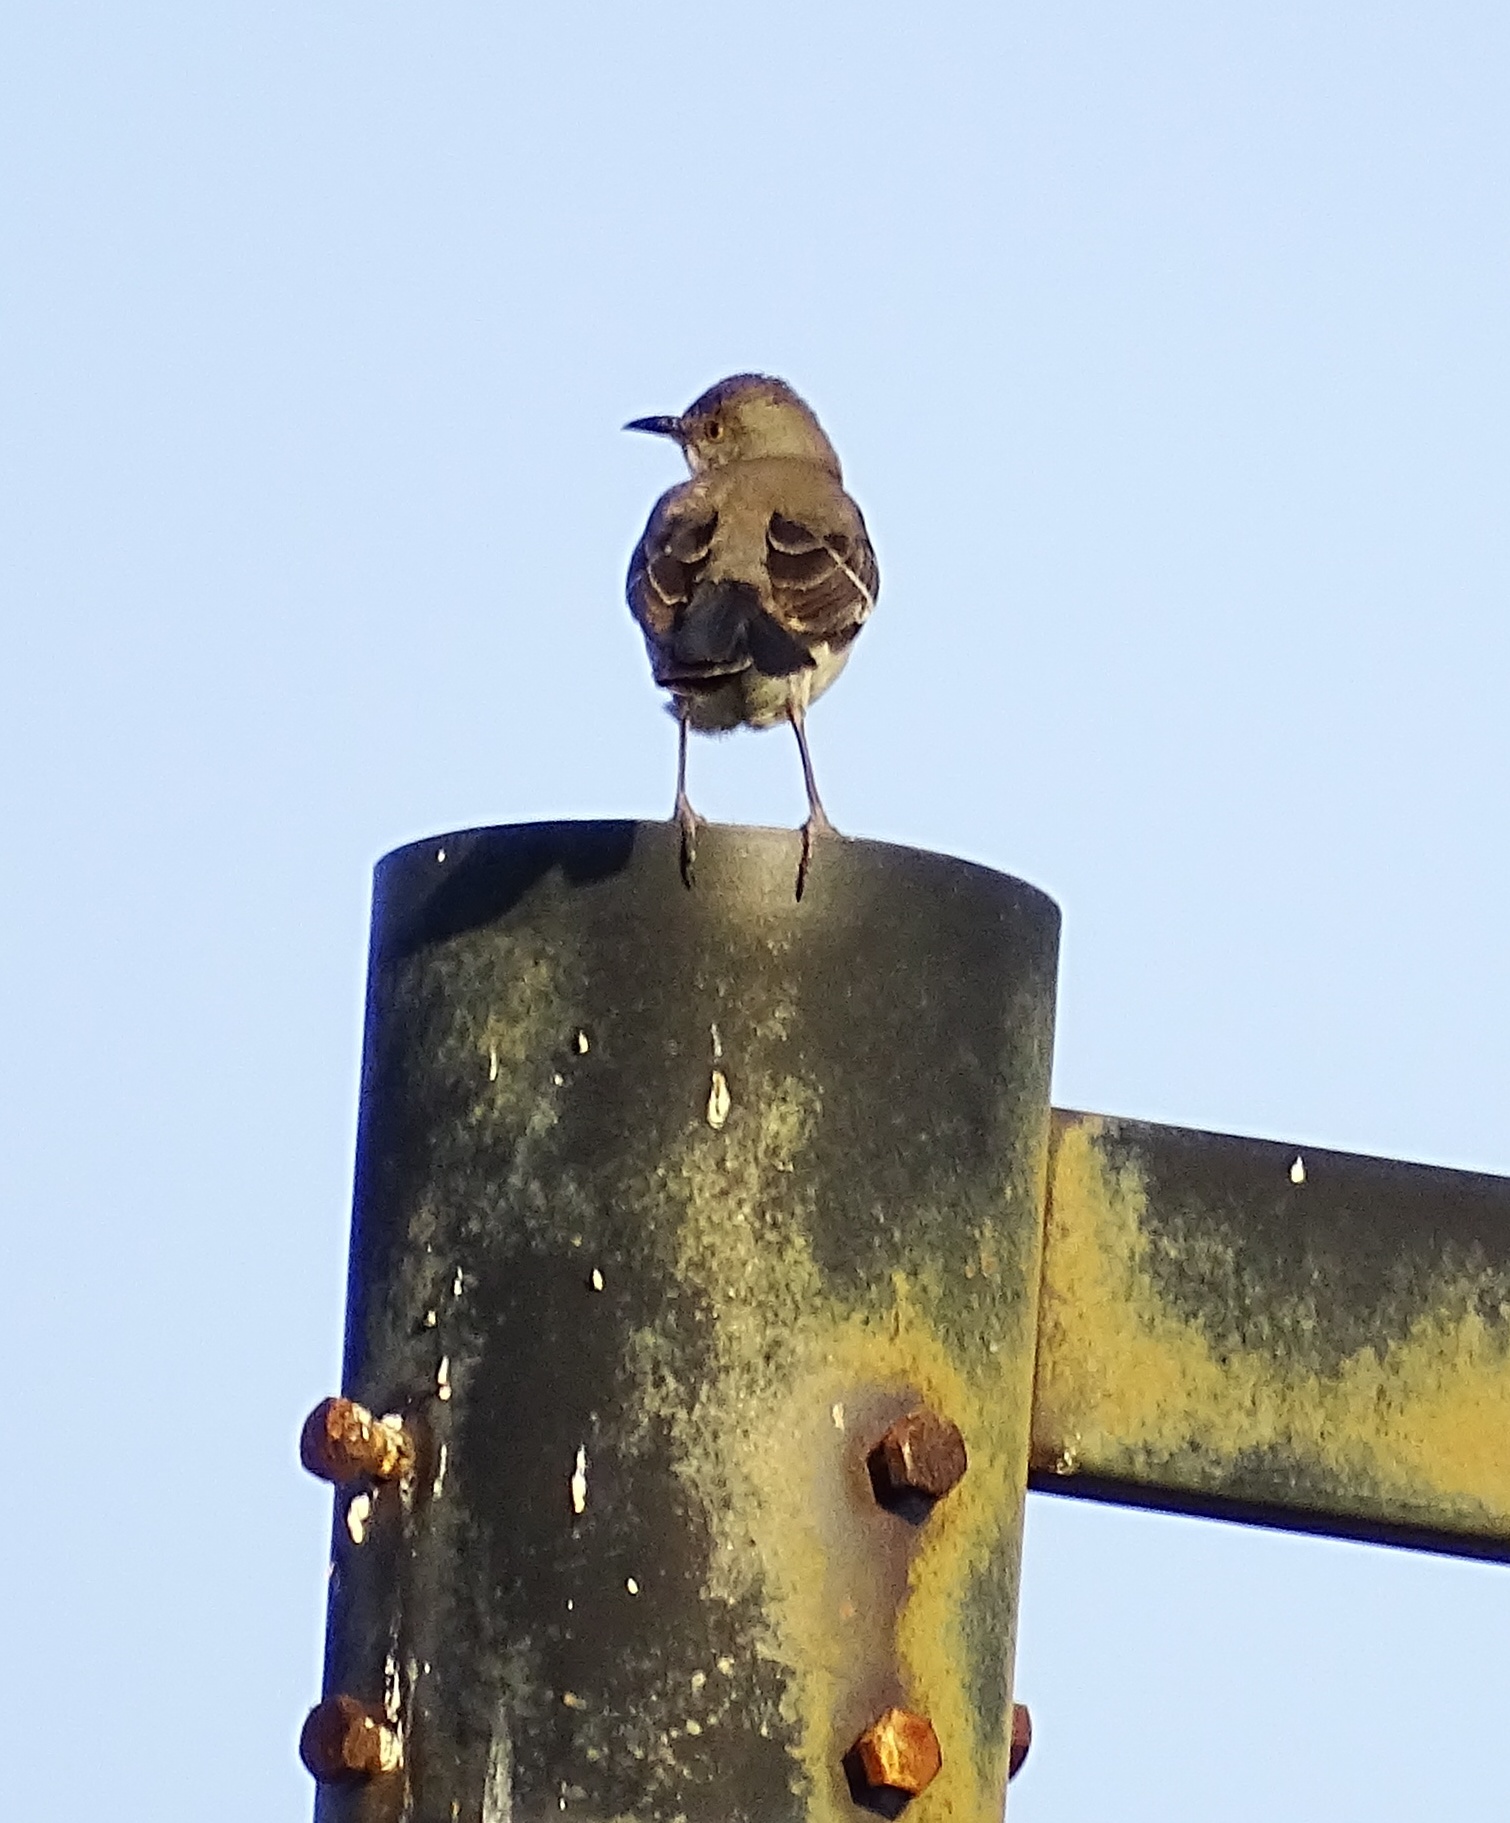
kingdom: Animalia
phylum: Chordata
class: Aves
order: Passeriformes
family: Mimidae
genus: Mimus
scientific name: Mimus polyglottos
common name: Northern mockingbird
